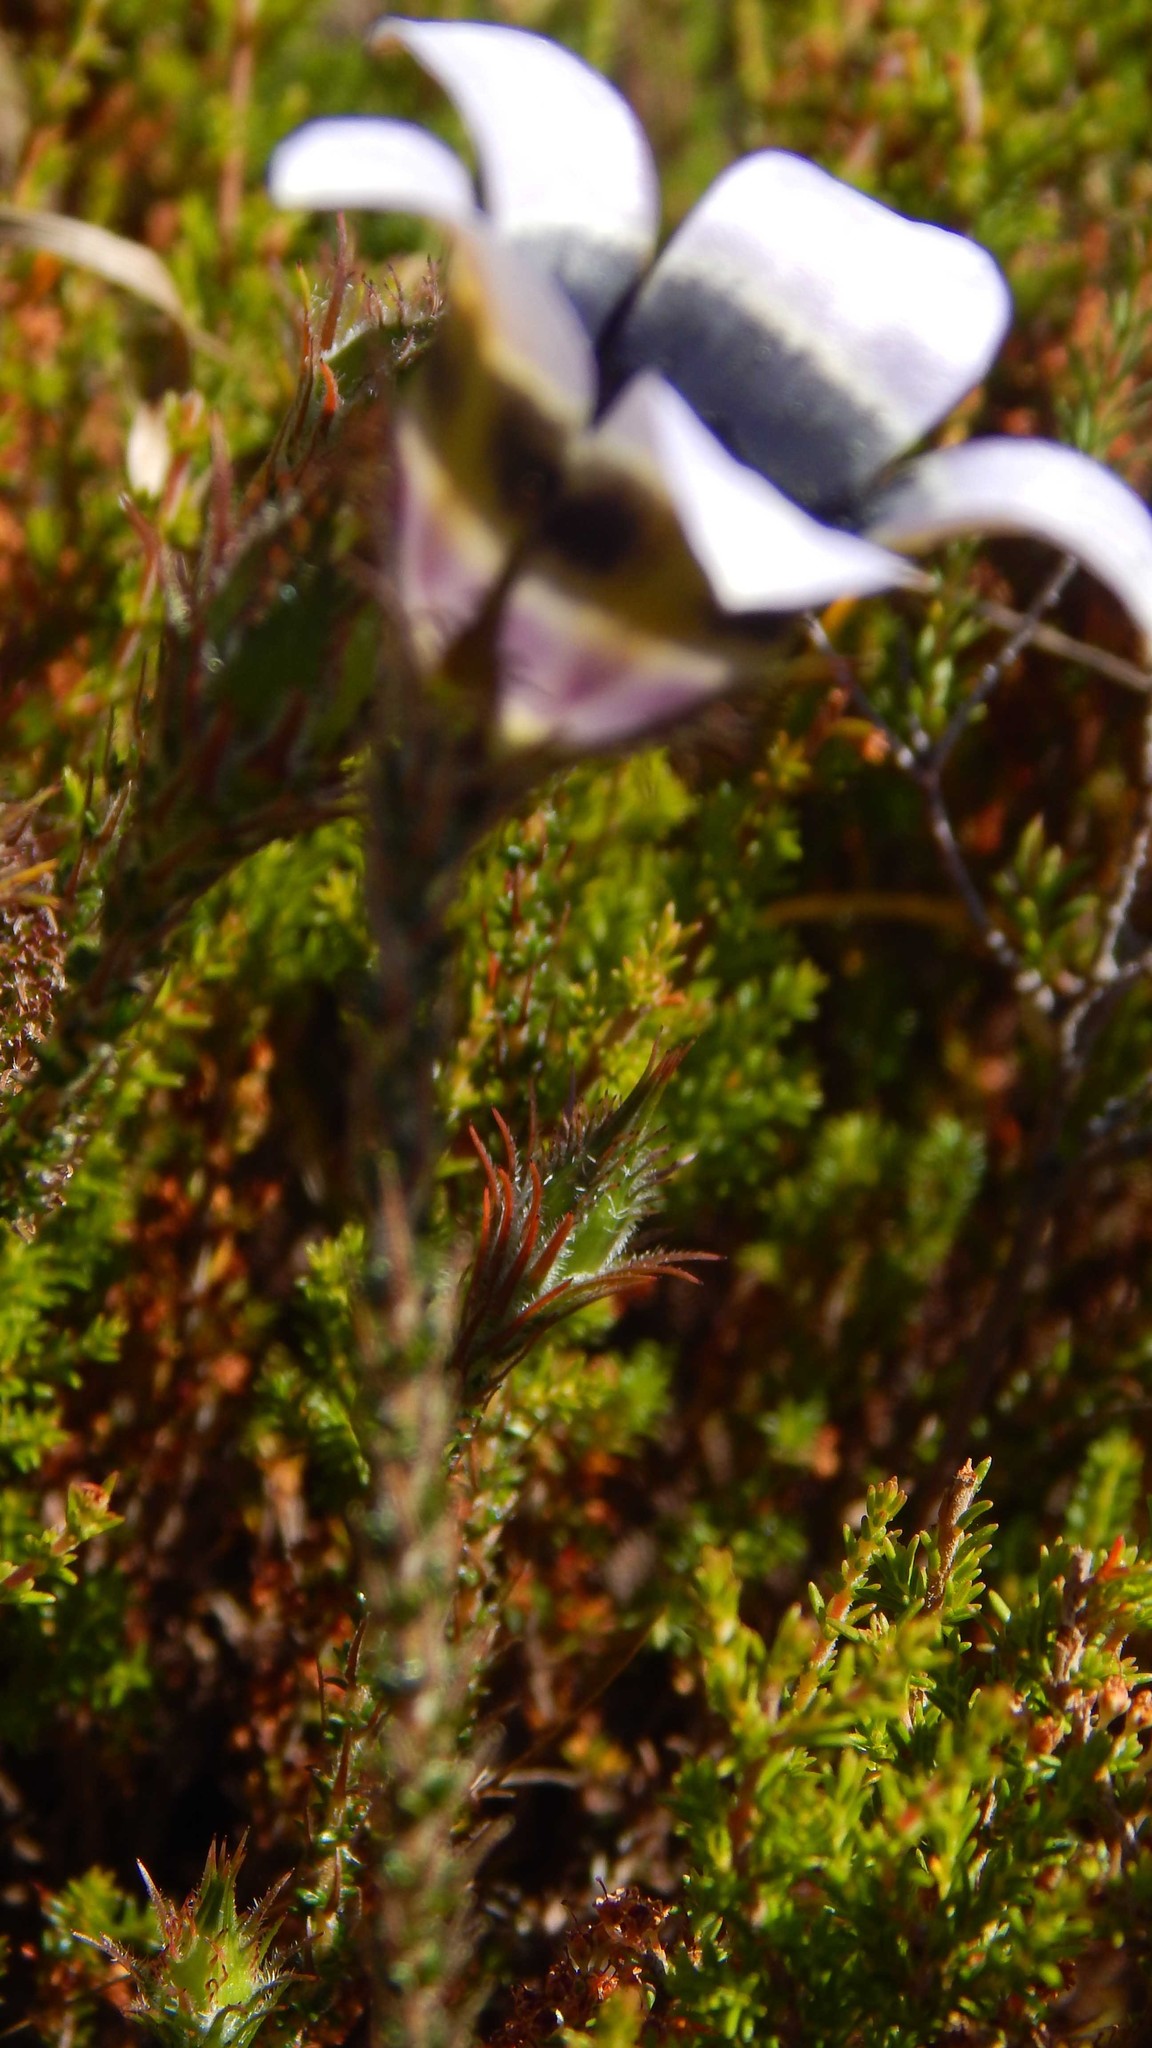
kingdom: Plantae
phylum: Tracheophyta
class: Magnoliopsida
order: Asterales
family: Campanulaceae
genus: Roella
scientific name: Roella ciliata
